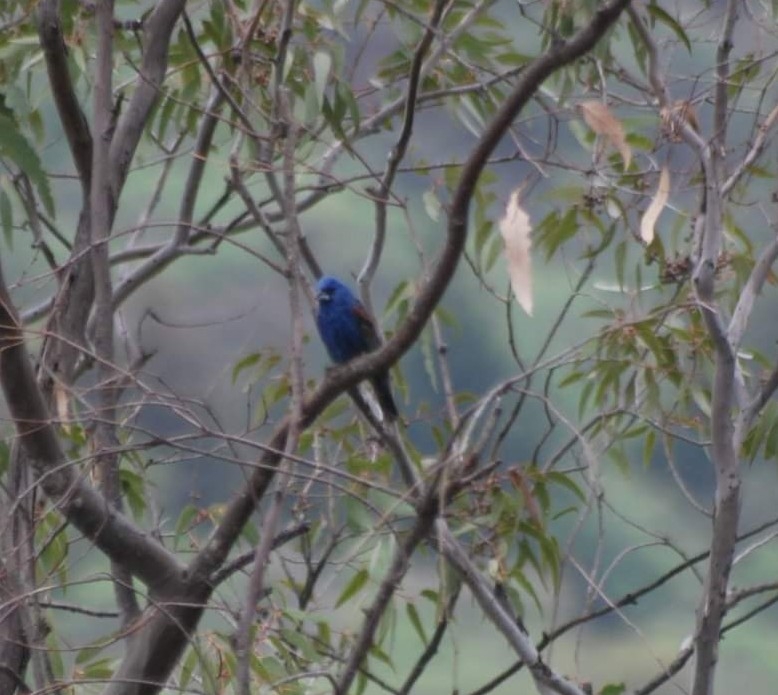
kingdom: Animalia
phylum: Chordata
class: Aves
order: Passeriformes
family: Cardinalidae
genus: Passerina
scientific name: Passerina caerulea
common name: Blue grosbeak
